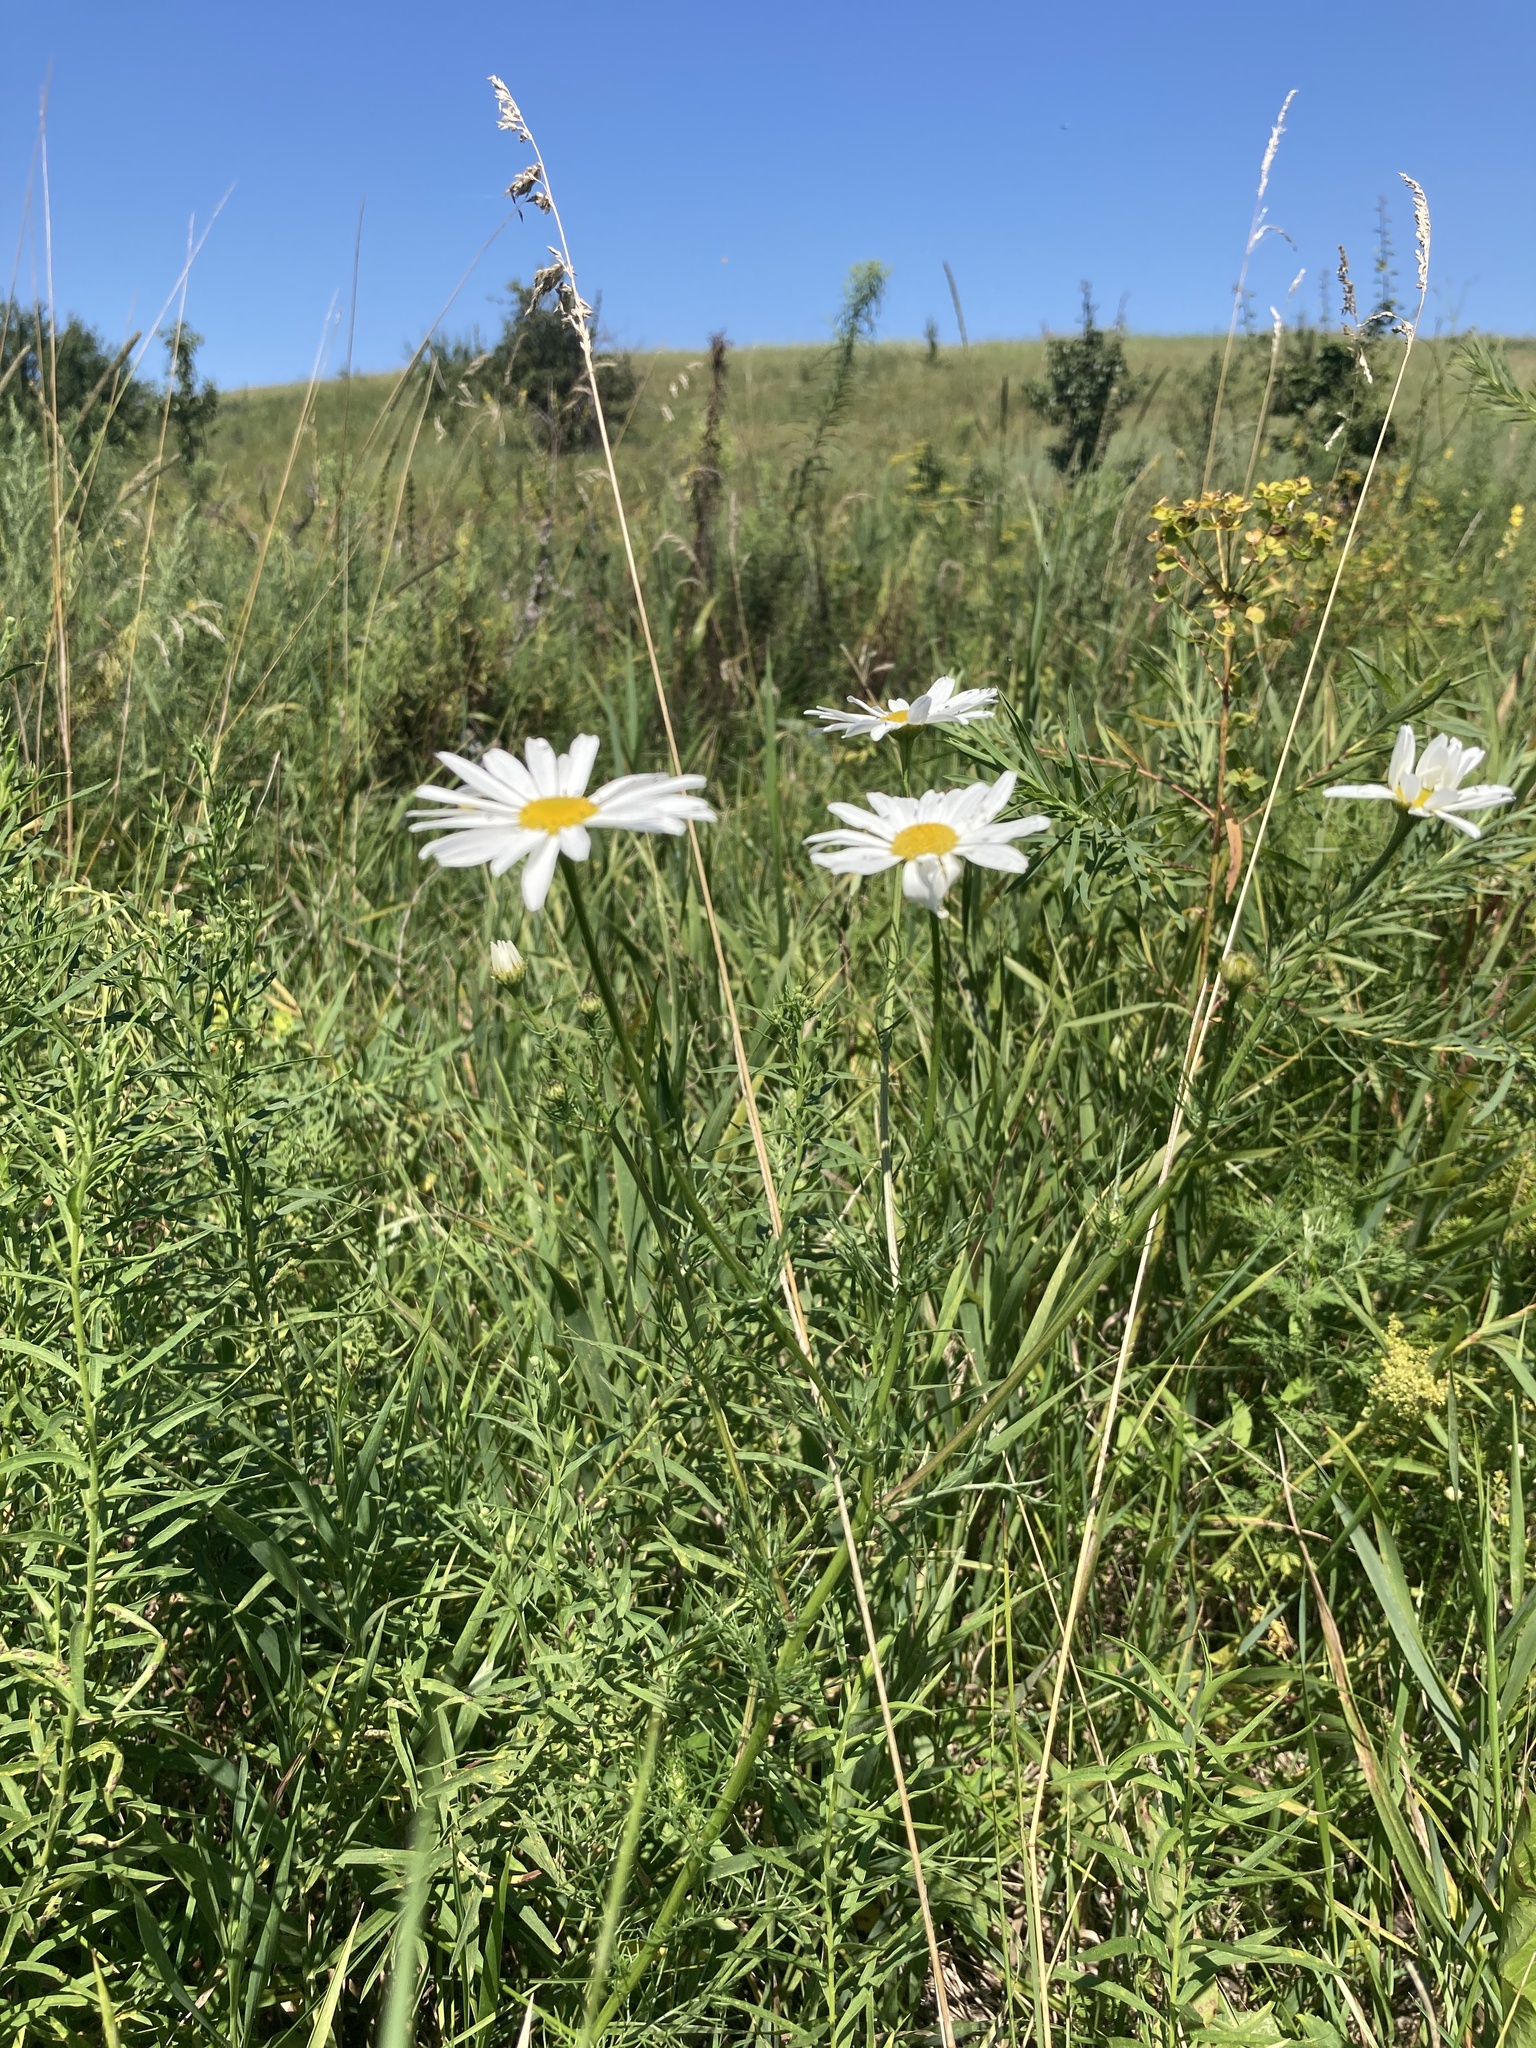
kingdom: Plantae
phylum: Tracheophyta
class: Magnoliopsida
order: Asterales
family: Asteraceae
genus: Leucanthemum
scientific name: Leucanthemum vulgare
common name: Oxeye daisy
